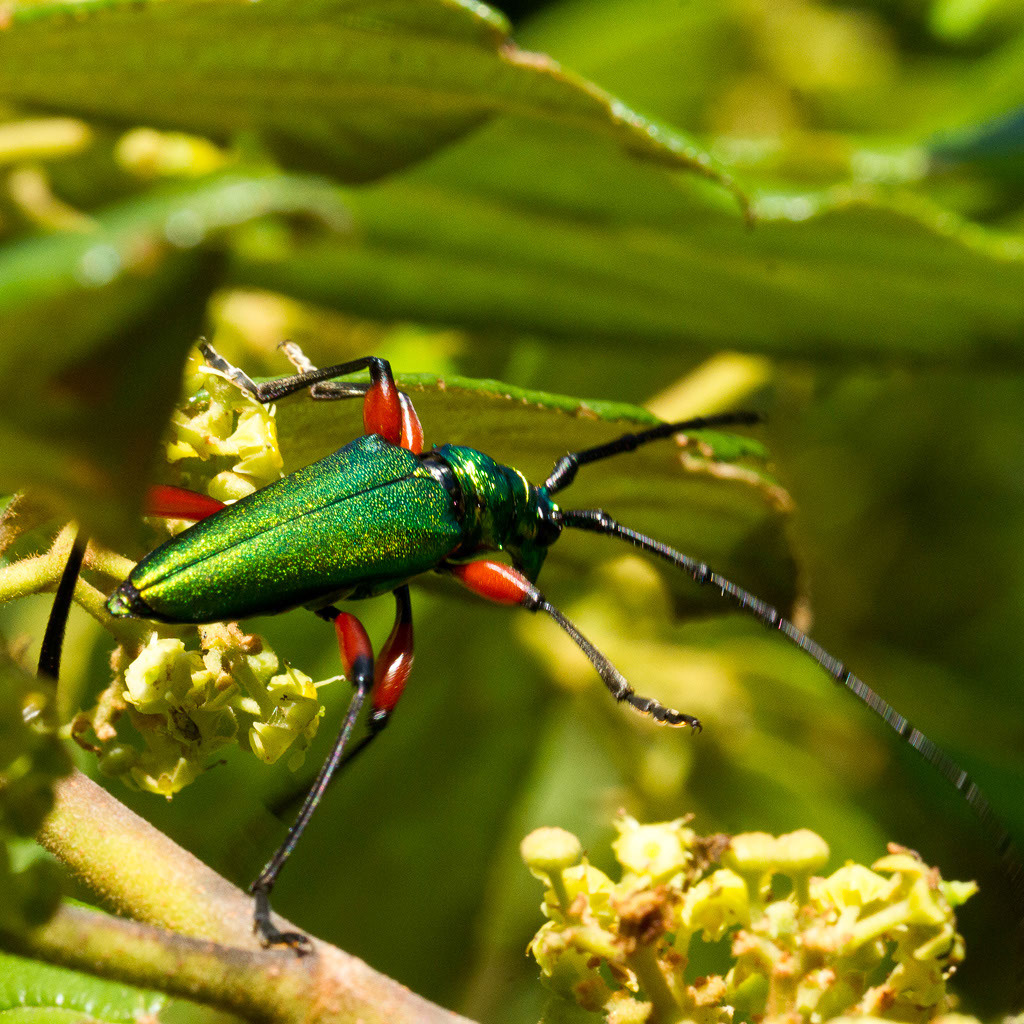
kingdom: Animalia
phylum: Arthropoda
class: Insecta
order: Coleoptera
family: Cerambycidae
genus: Philematium
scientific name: Philematium virens
